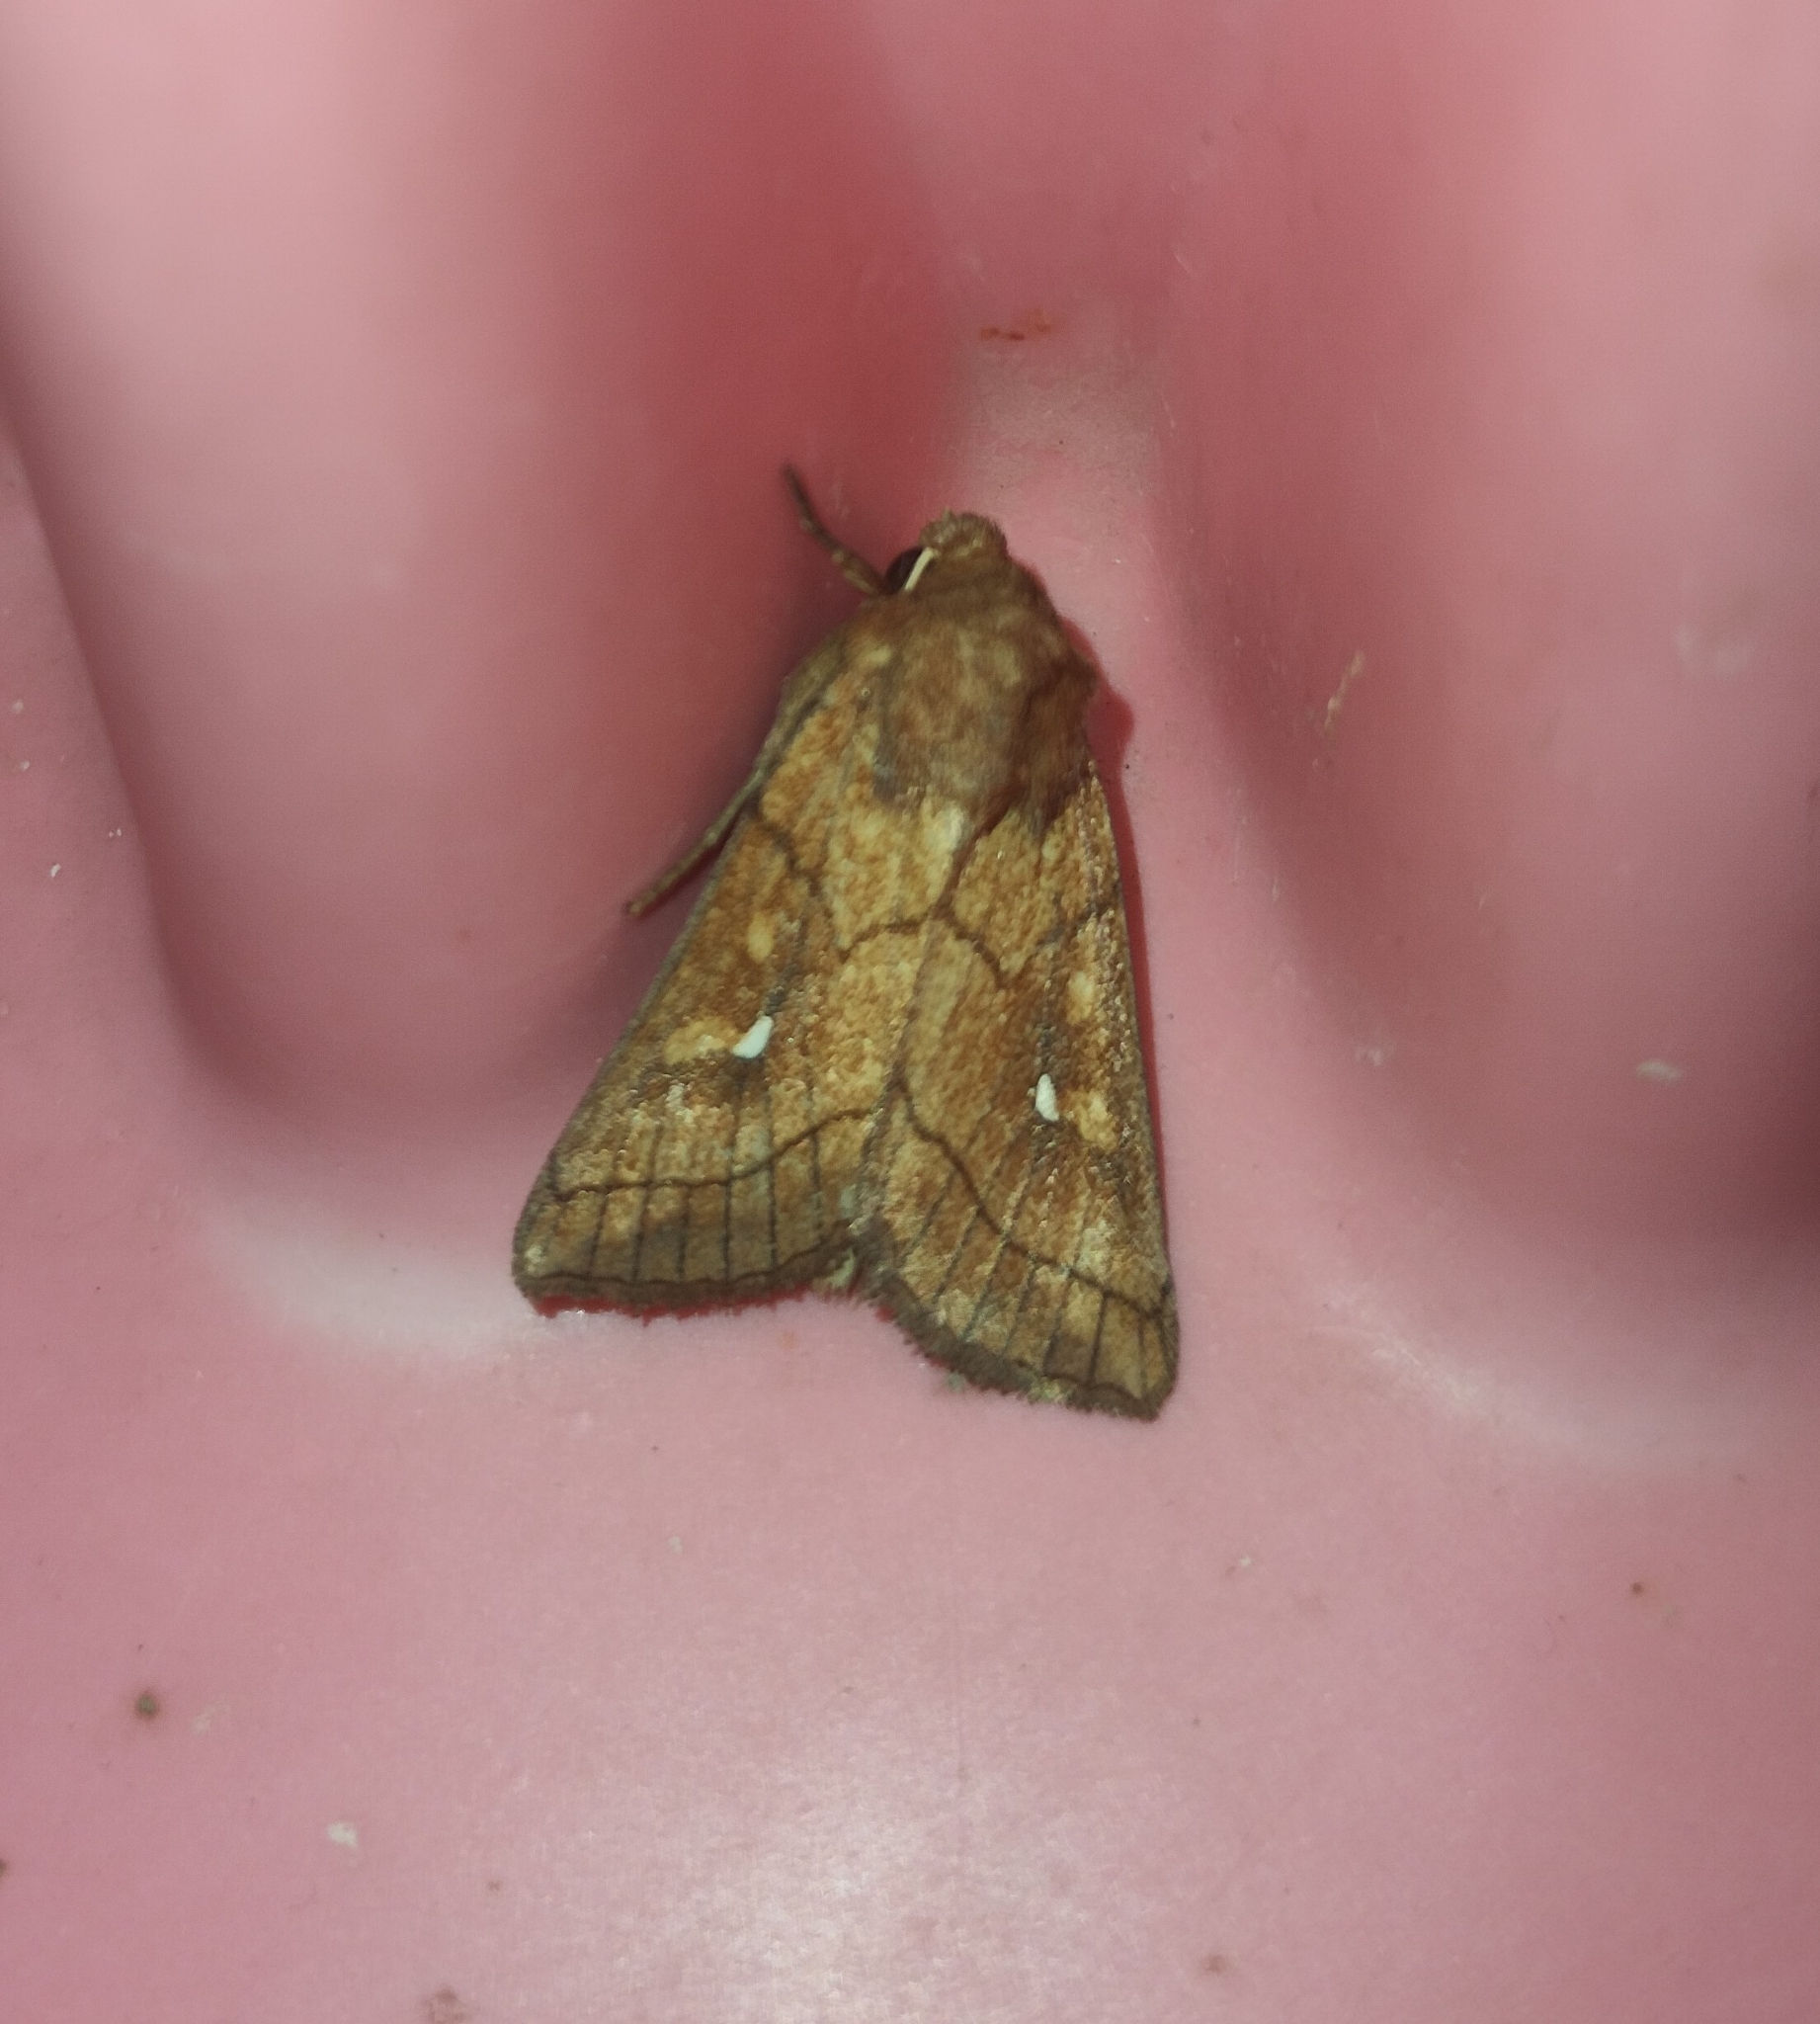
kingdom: Animalia
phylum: Arthropoda
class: Insecta
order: Lepidoptera
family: Noctuidae
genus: Mythimna
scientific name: Mythimna conigera
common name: Brown-line bright-eye
